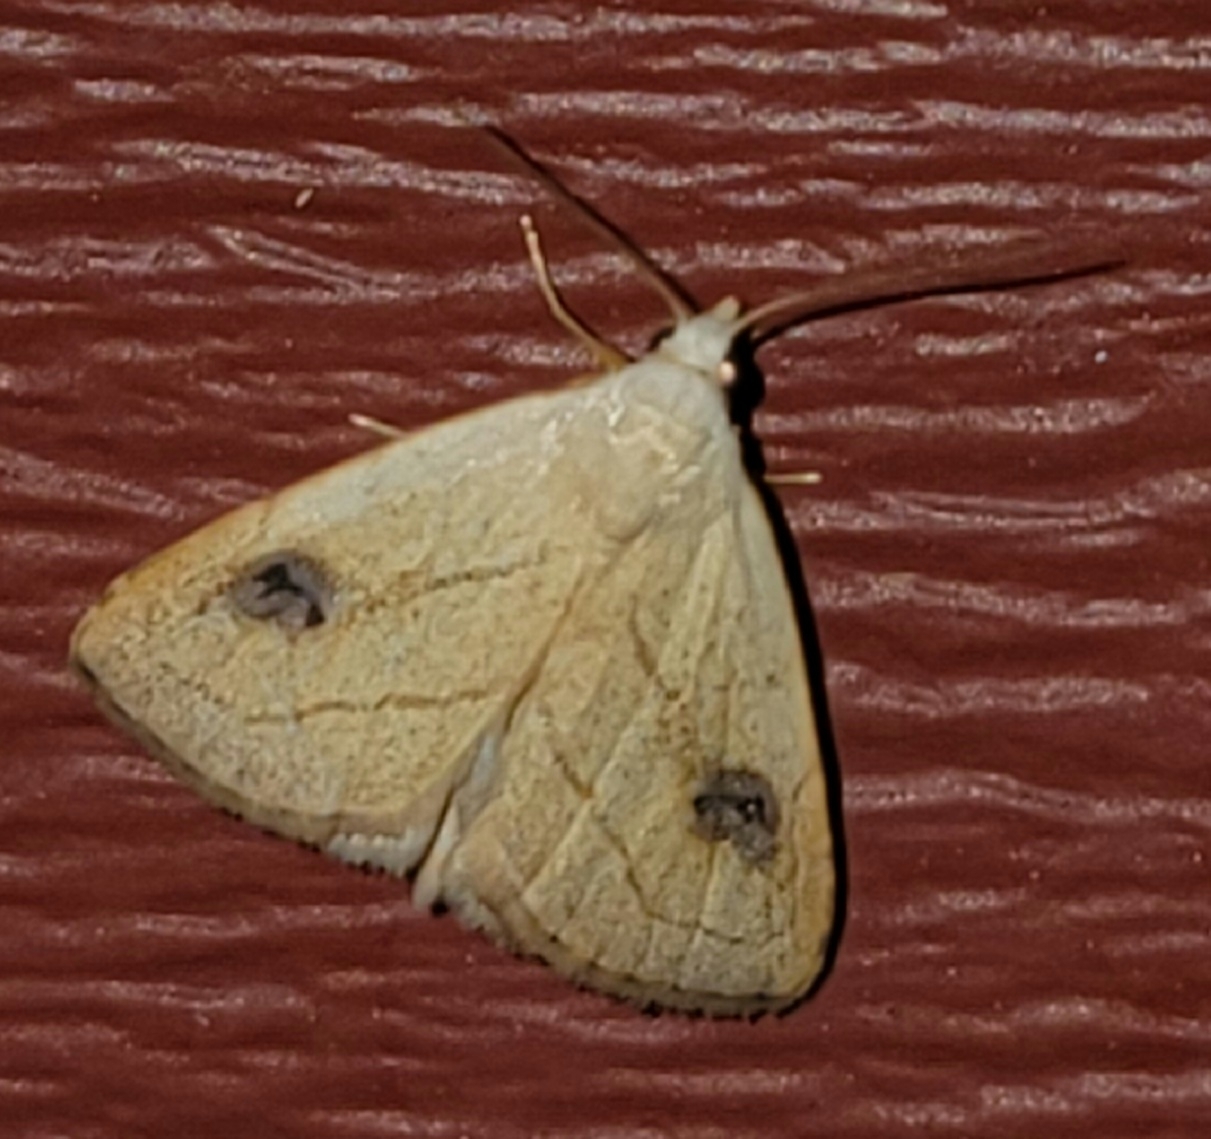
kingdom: Animalia
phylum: Arthropoda
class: Insecta
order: Lepidoptera
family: Erebidae
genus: Rivula
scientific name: Rivula propinqualis
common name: Spotted grass moth
